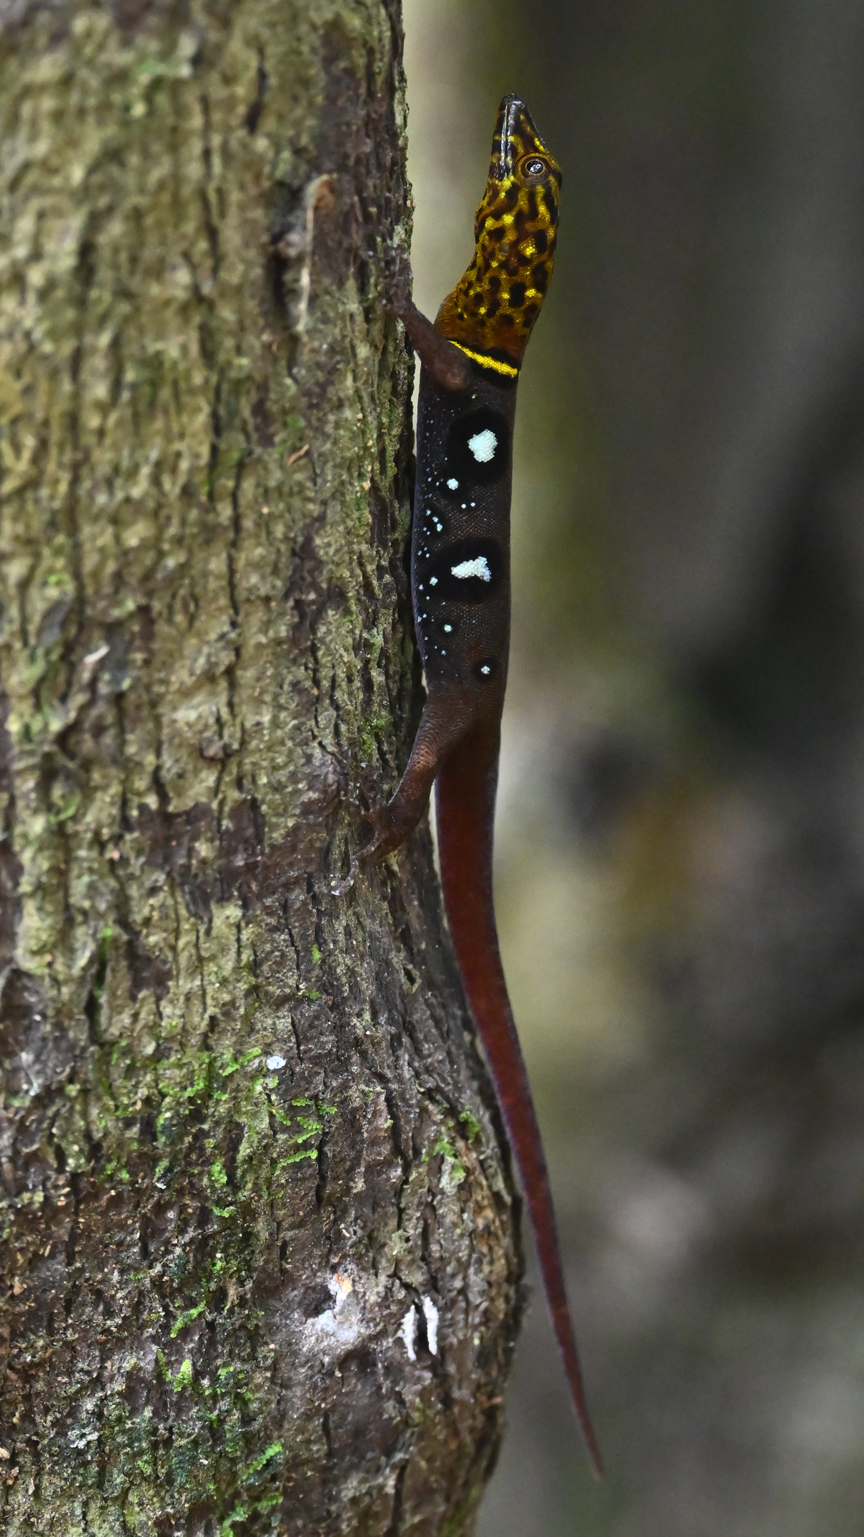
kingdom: Animalia
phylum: Chordata
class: Squamata
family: Sphaerodactylidae
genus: Gonatodes
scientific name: Gonatodes ocellatus
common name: Eyespot gecko
